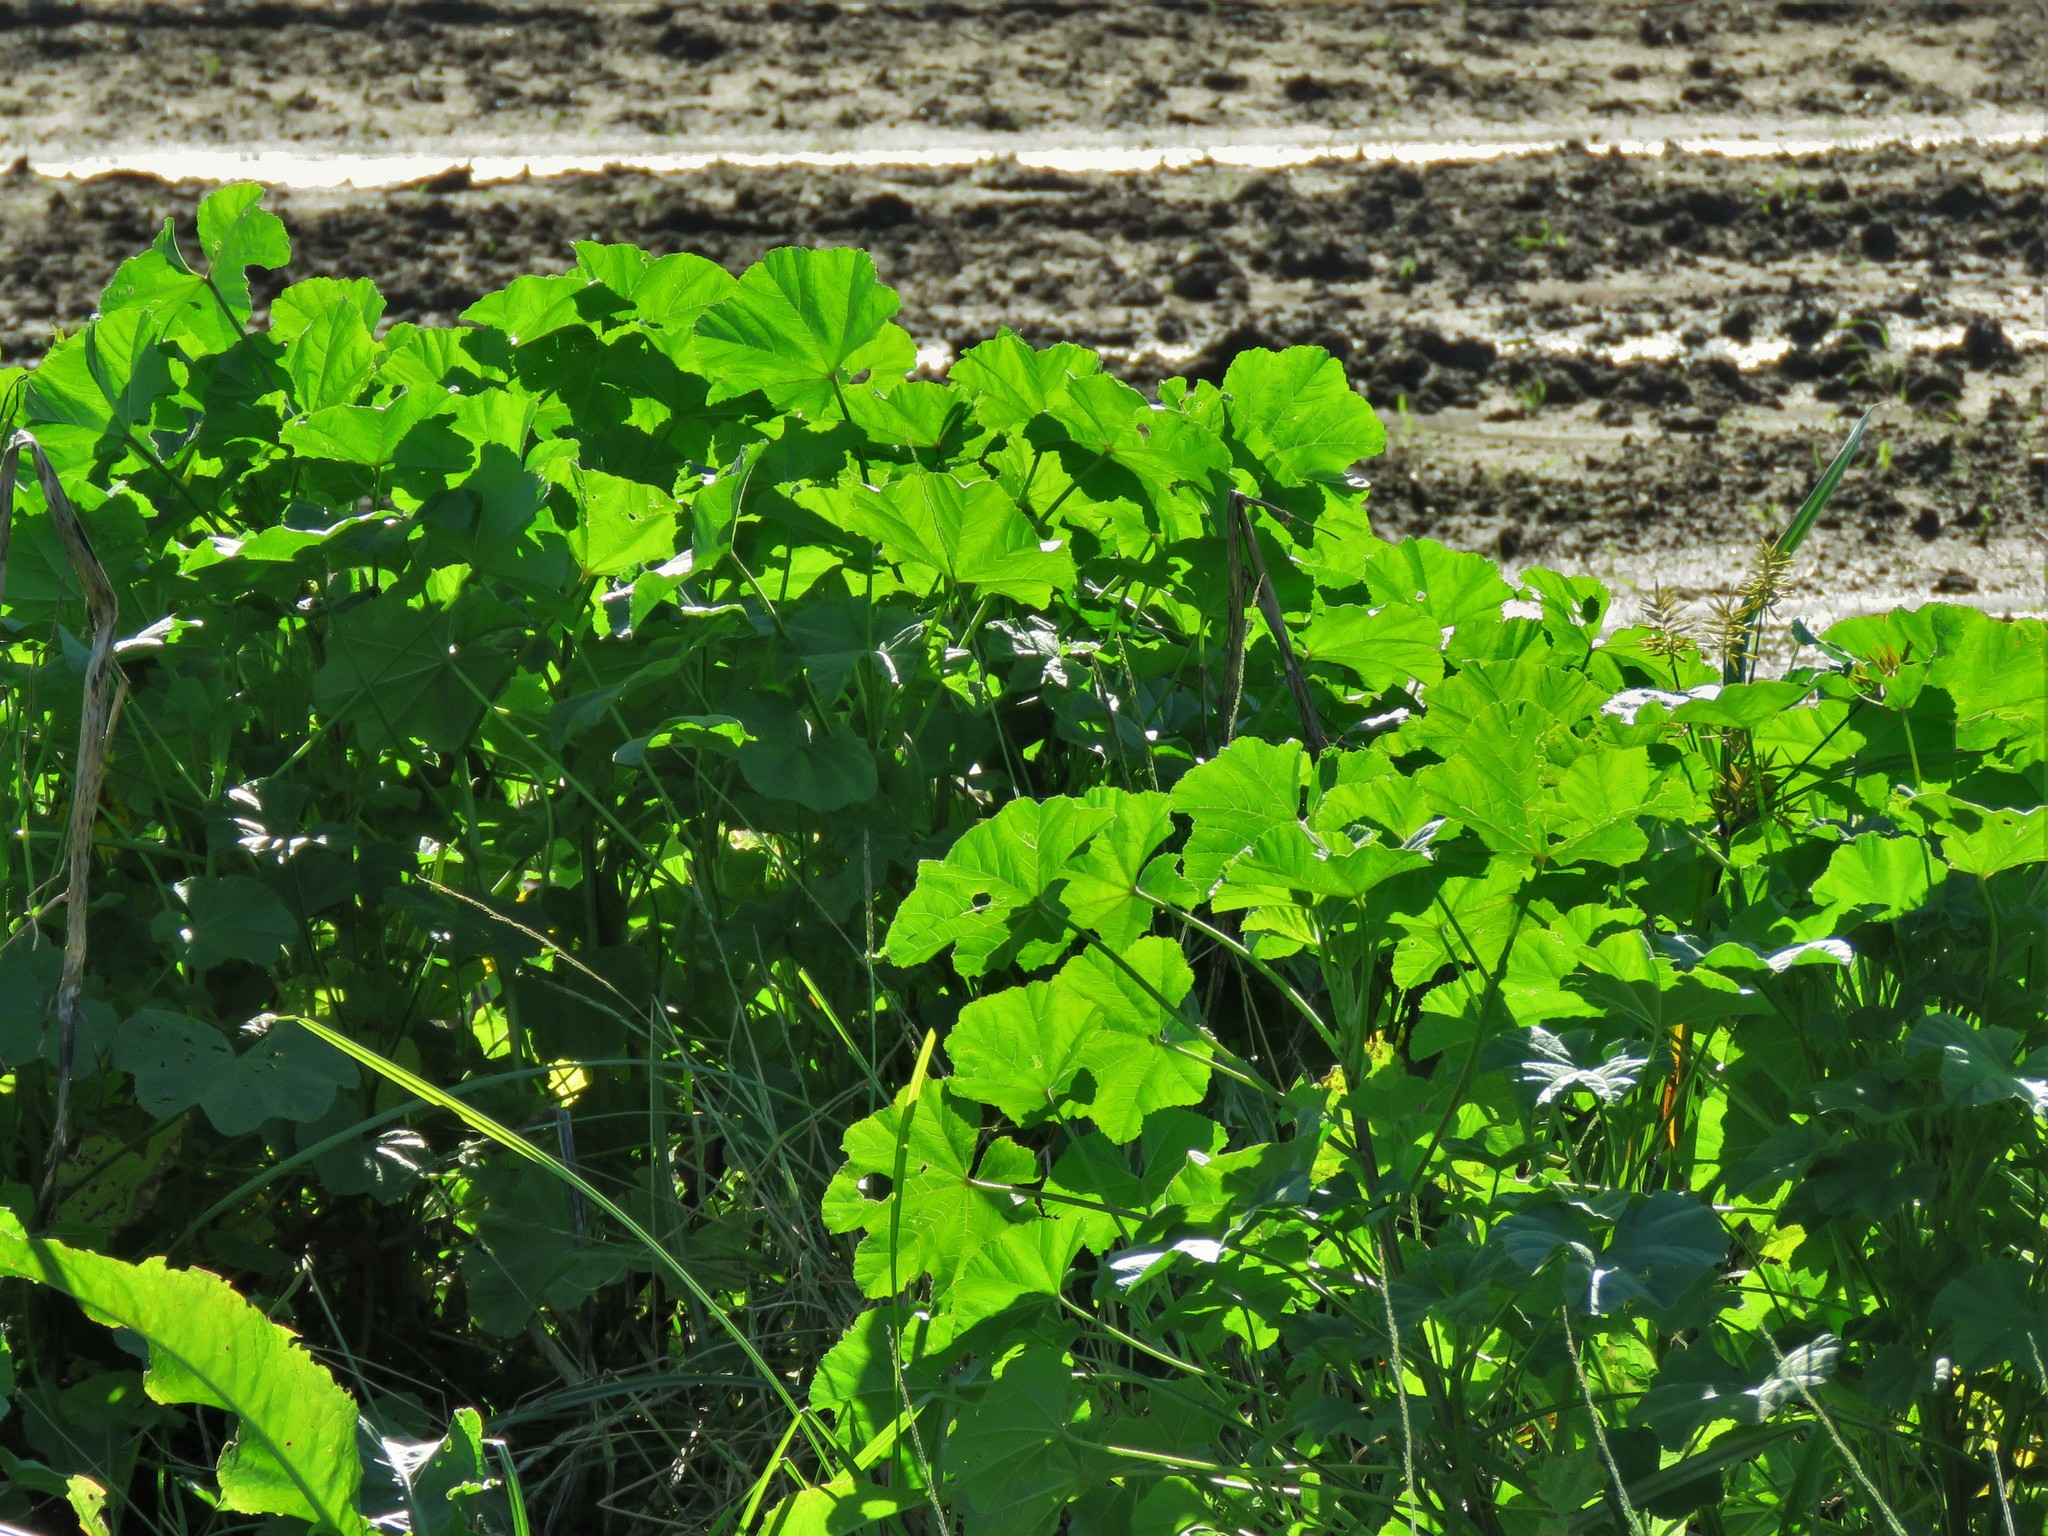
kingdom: Plantae
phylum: Tracheophyta
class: Magnoliopsida
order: Malvales
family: Malvaceae
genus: Malva
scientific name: Malva parviflora
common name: Least mallow
